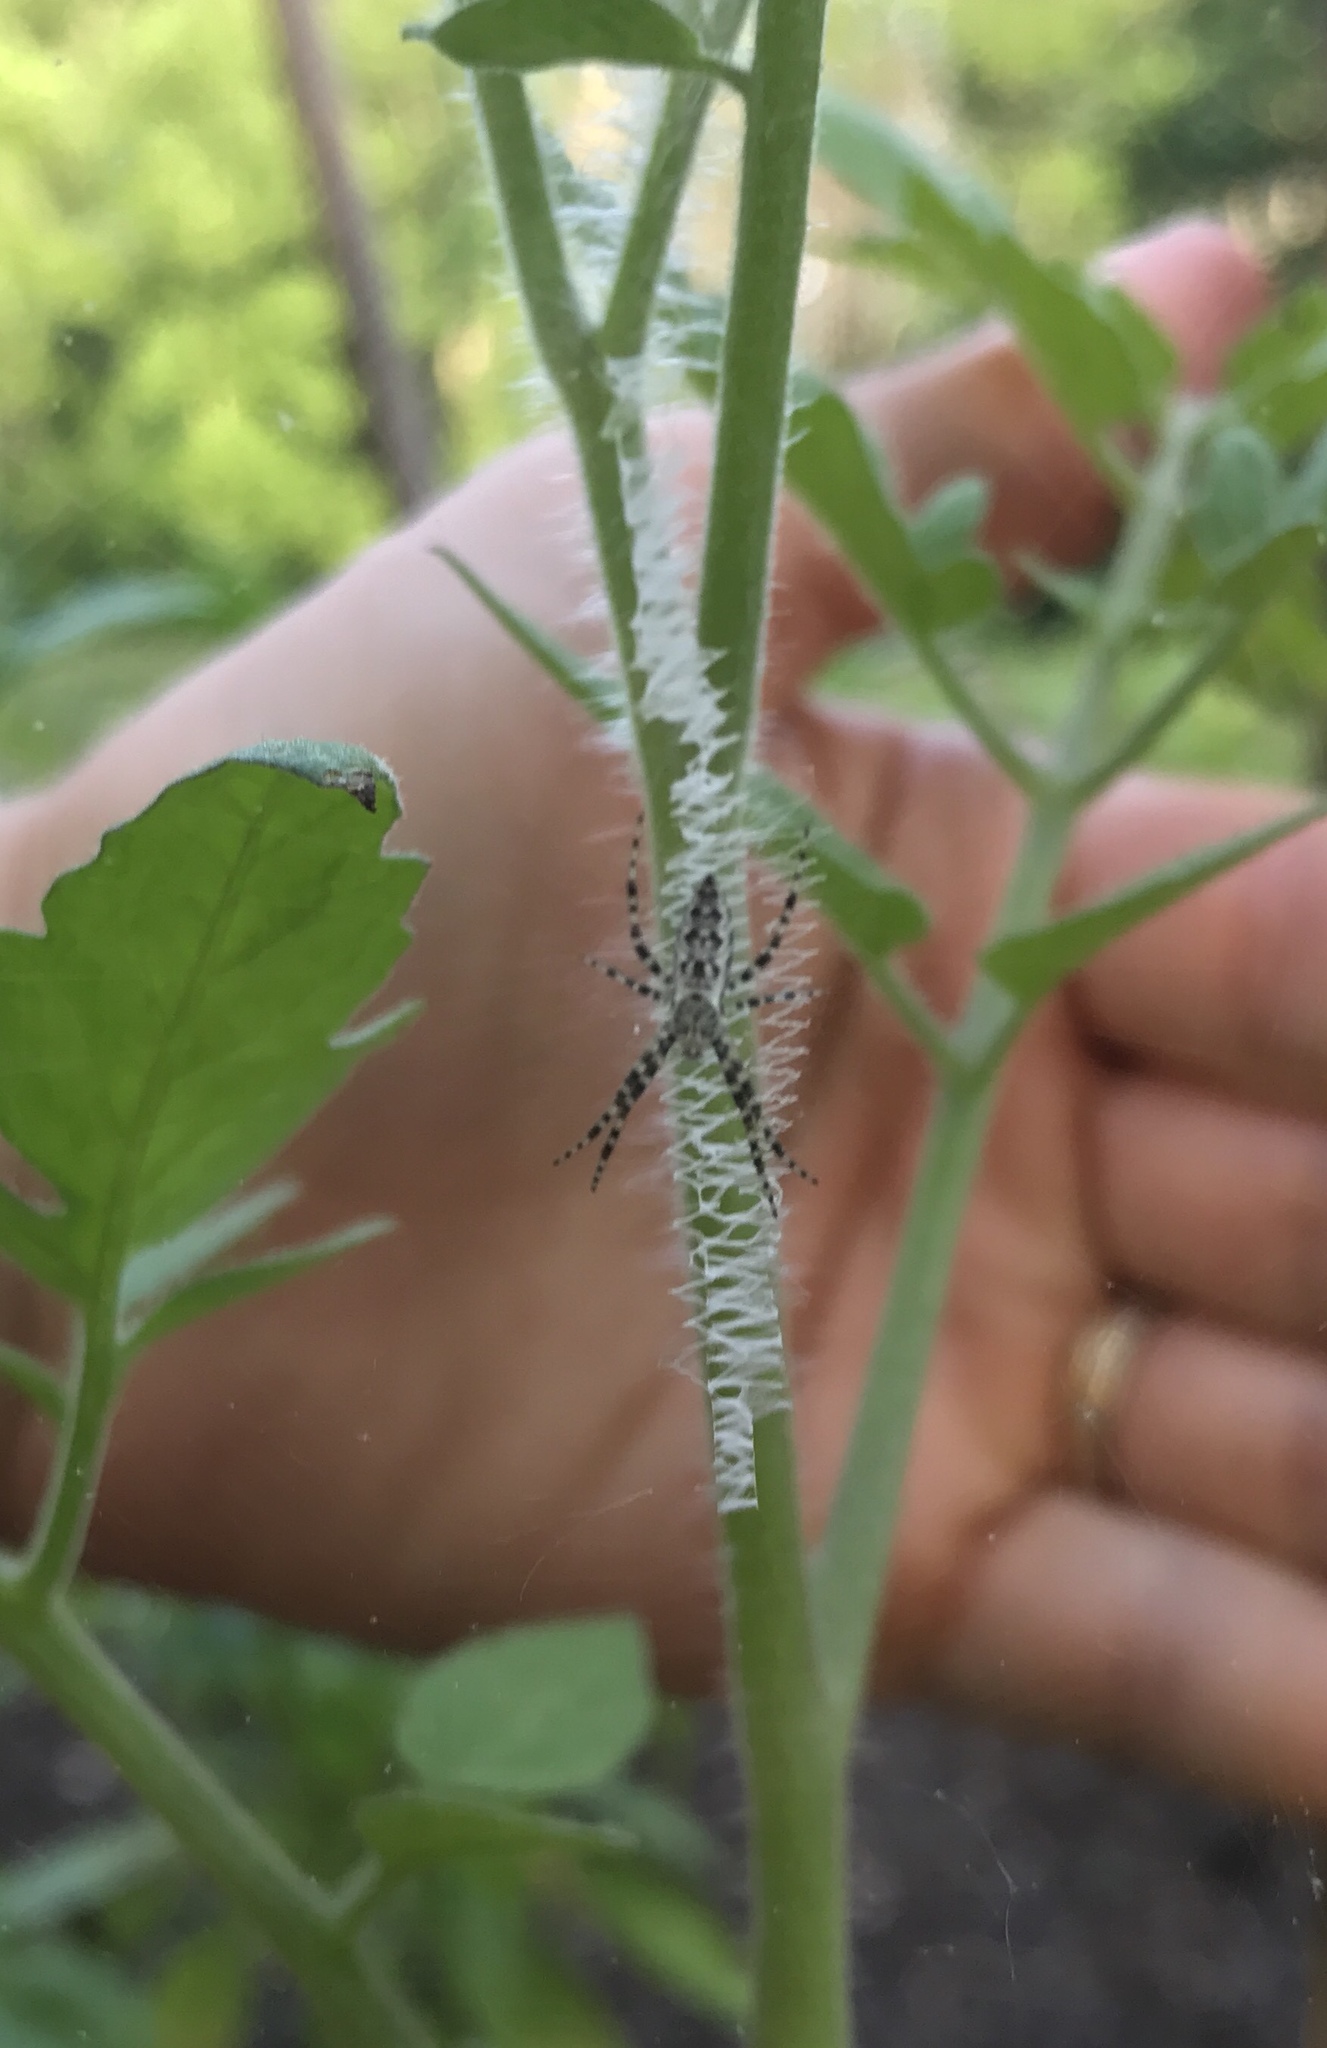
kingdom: Animalia
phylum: Arthropoda
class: Arachnida
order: Araneae
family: Araneidae
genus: Argiope
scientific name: Argiope aurantia
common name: Orb weavers
